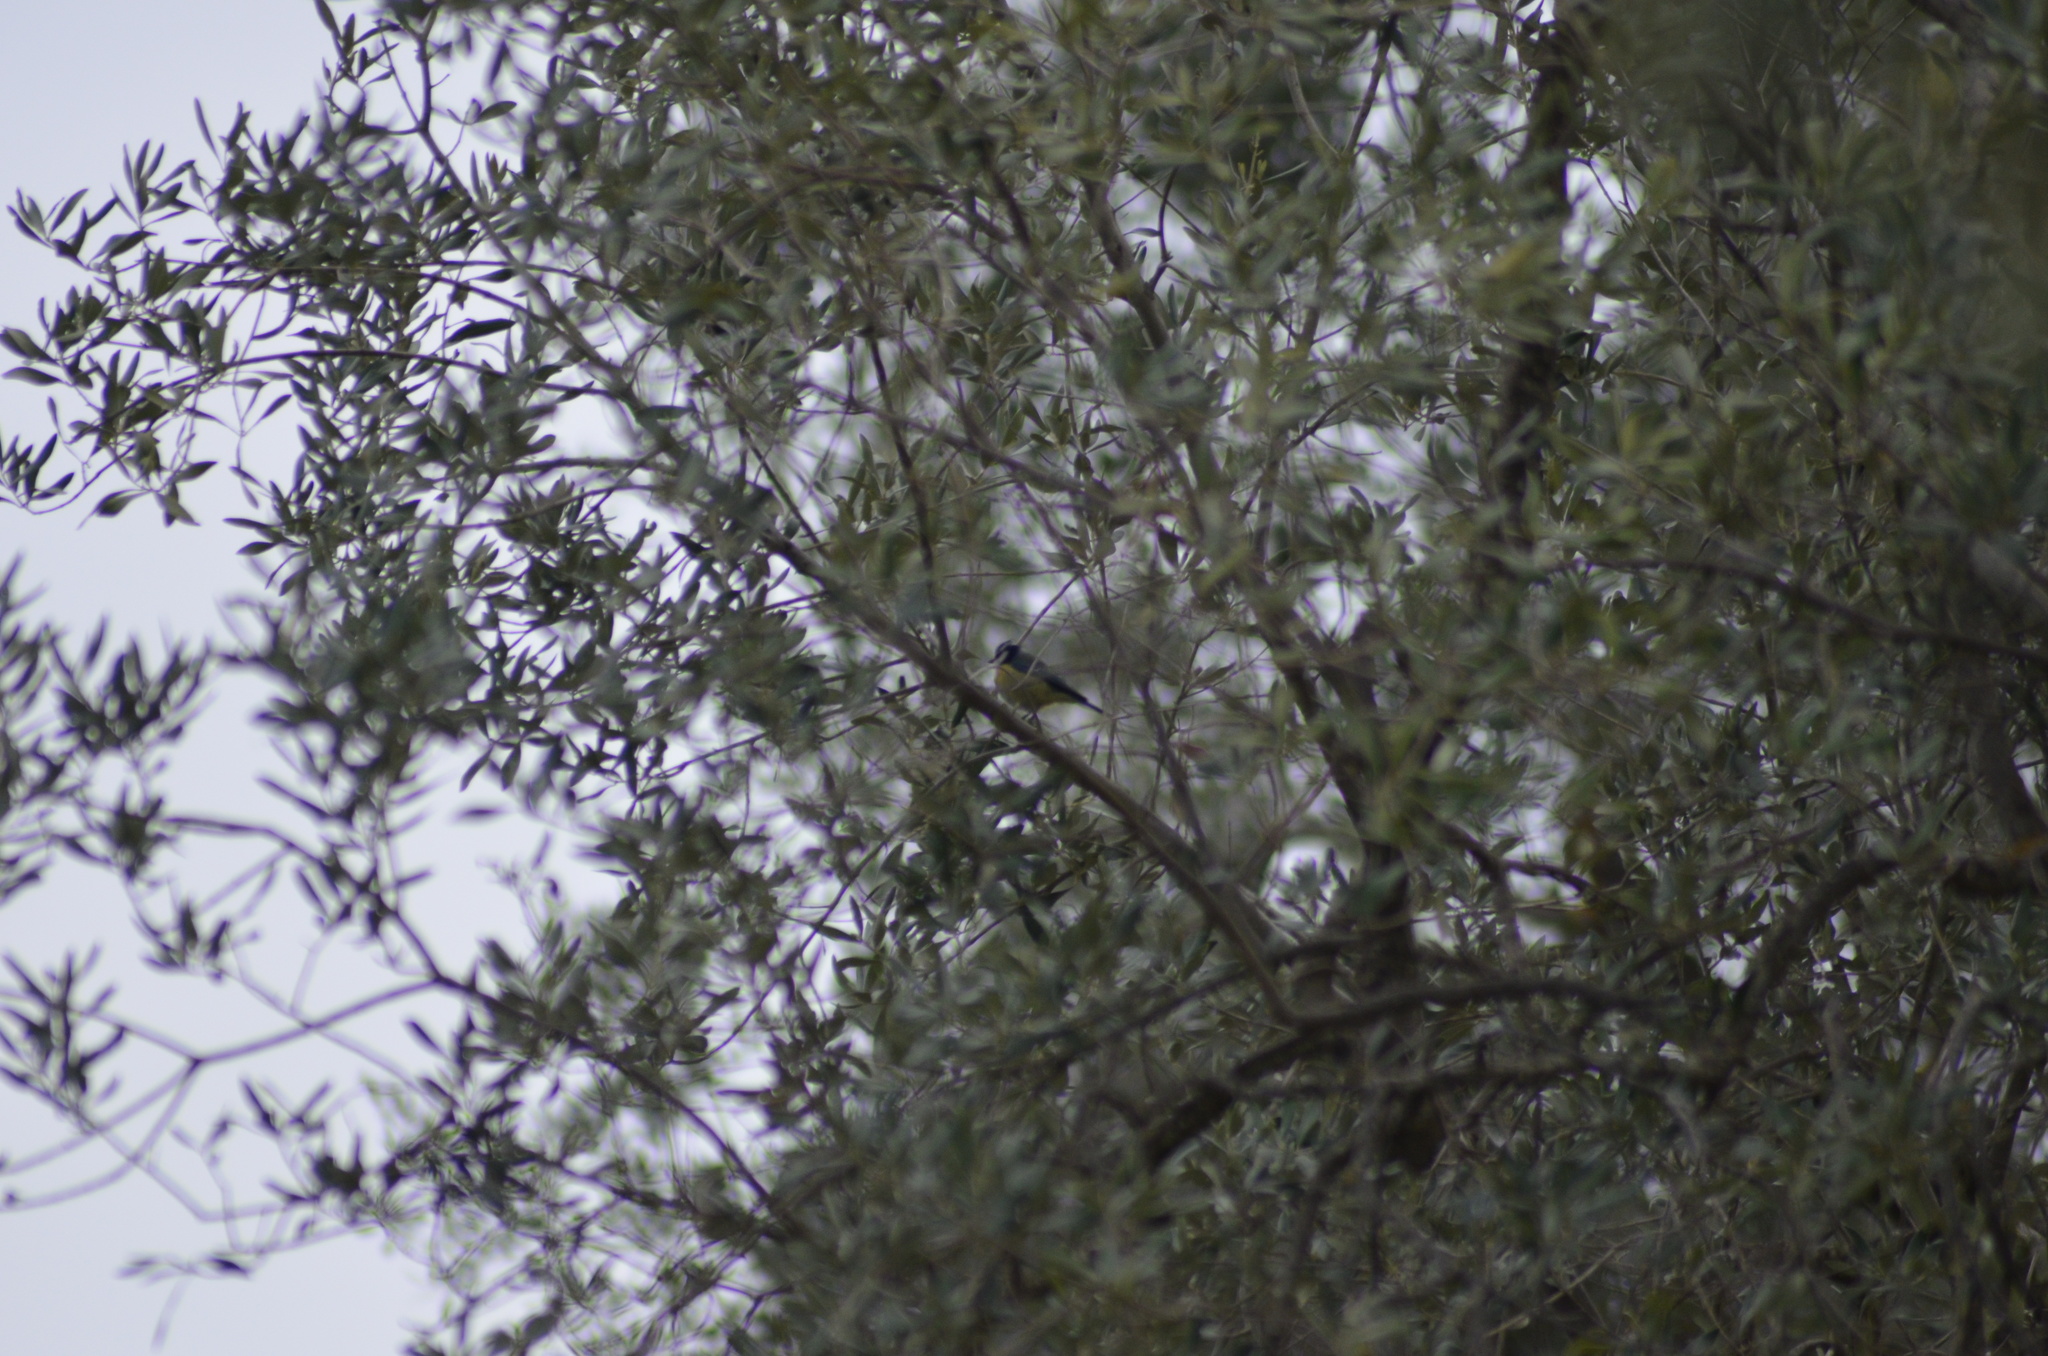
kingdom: Animalia
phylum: Chordata
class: Aves
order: Passeriformes
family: Paridae
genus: Cyanistes
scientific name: Cyanistes caeruleus
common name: Eurasian blue tit
